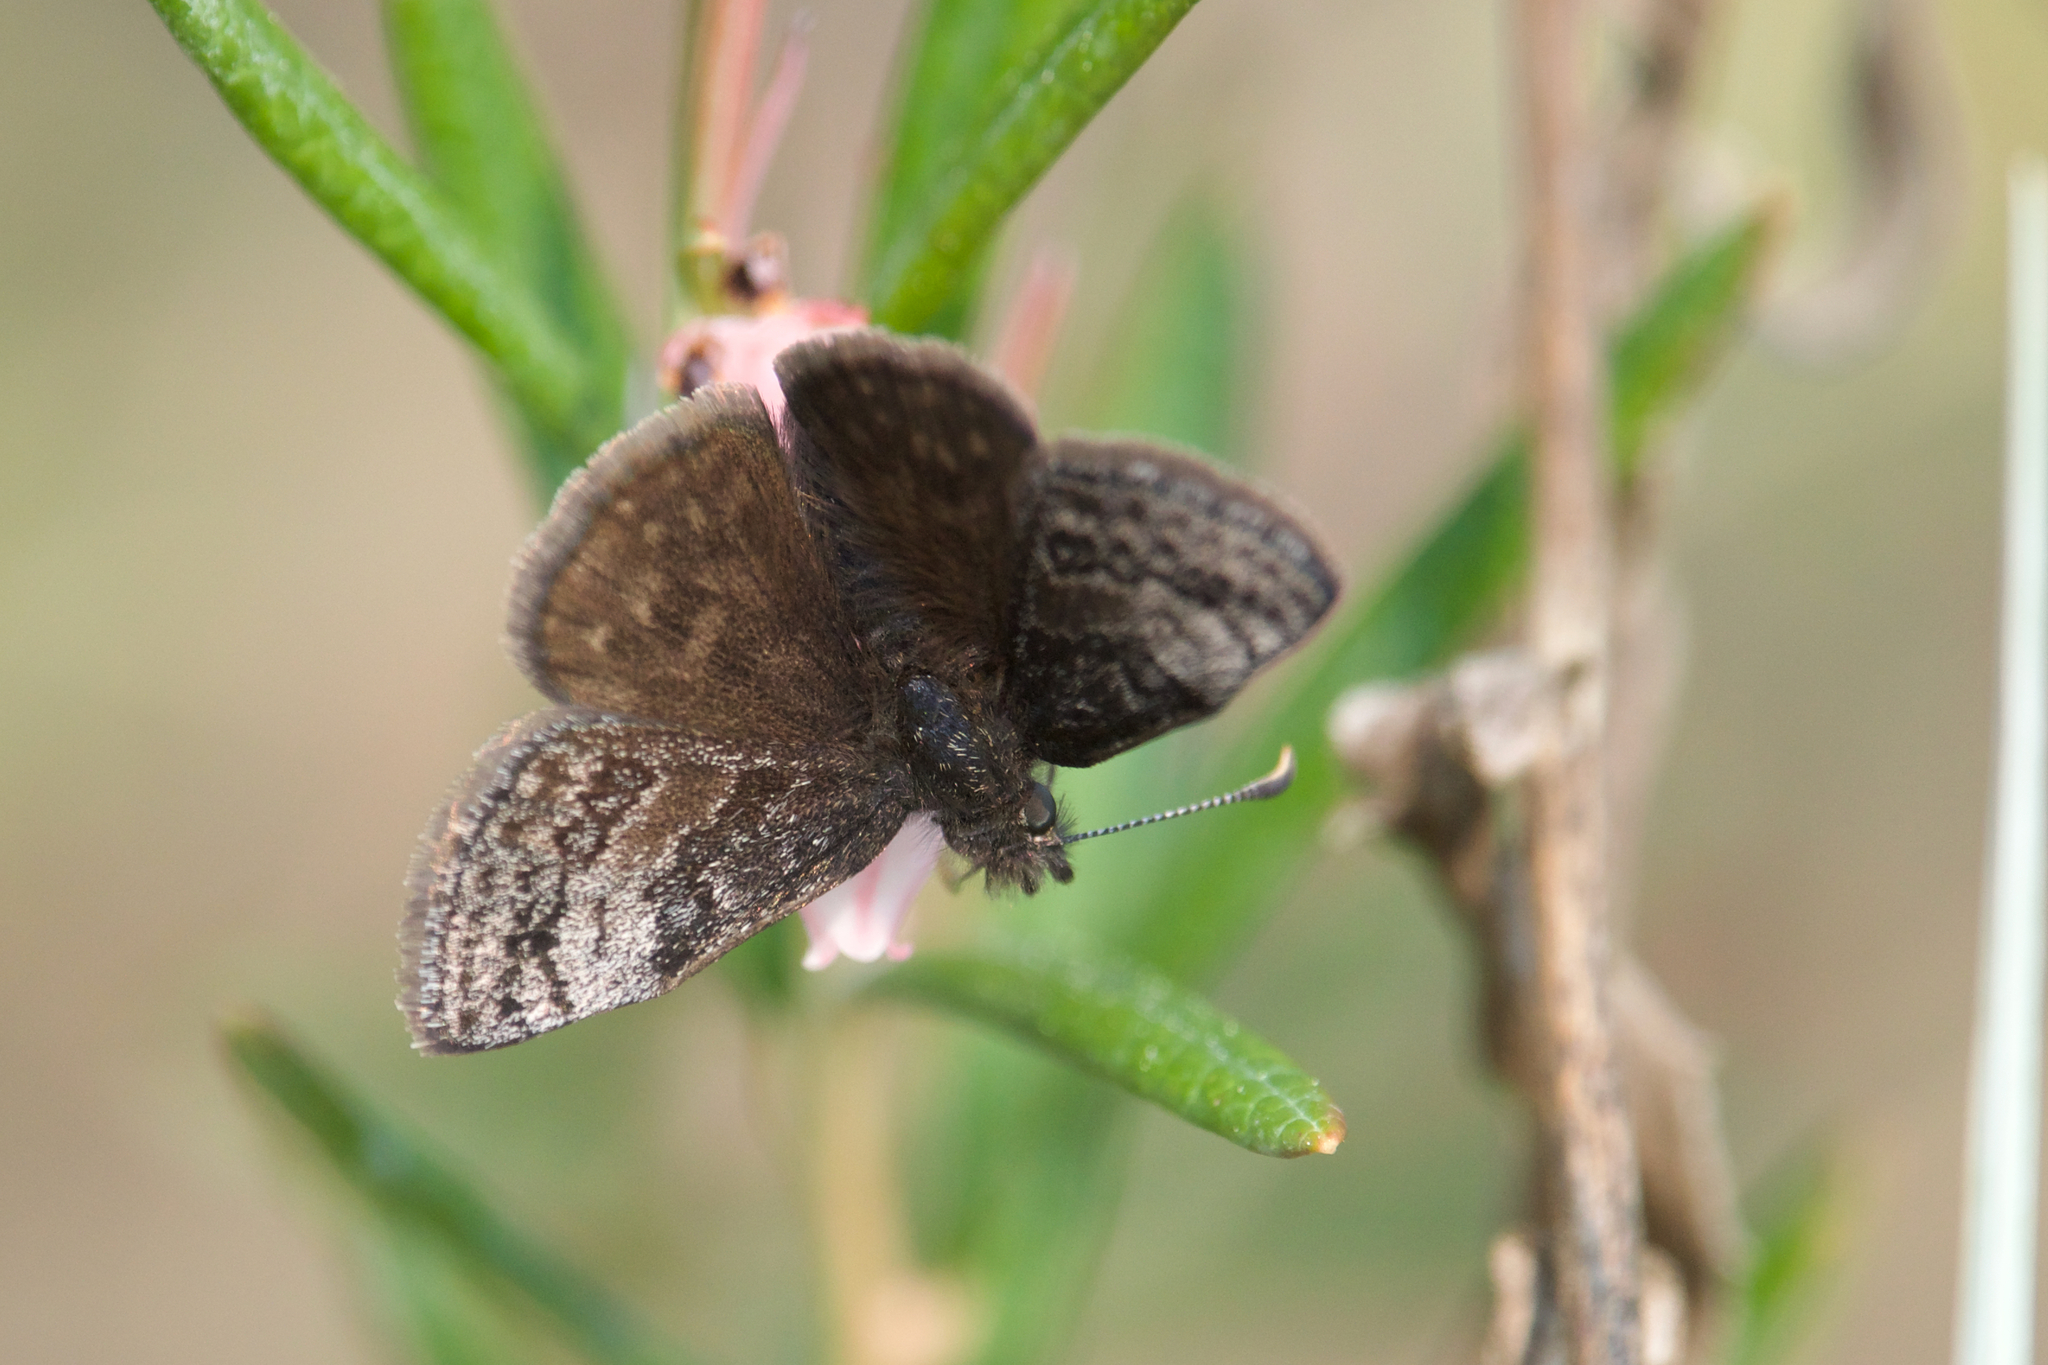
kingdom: Animalia
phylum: Arthropoda
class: Insecta
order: Lepidoptera
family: Hesperiidae
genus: Erynnis
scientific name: Erynnis icelus
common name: Dreamy duskywing
